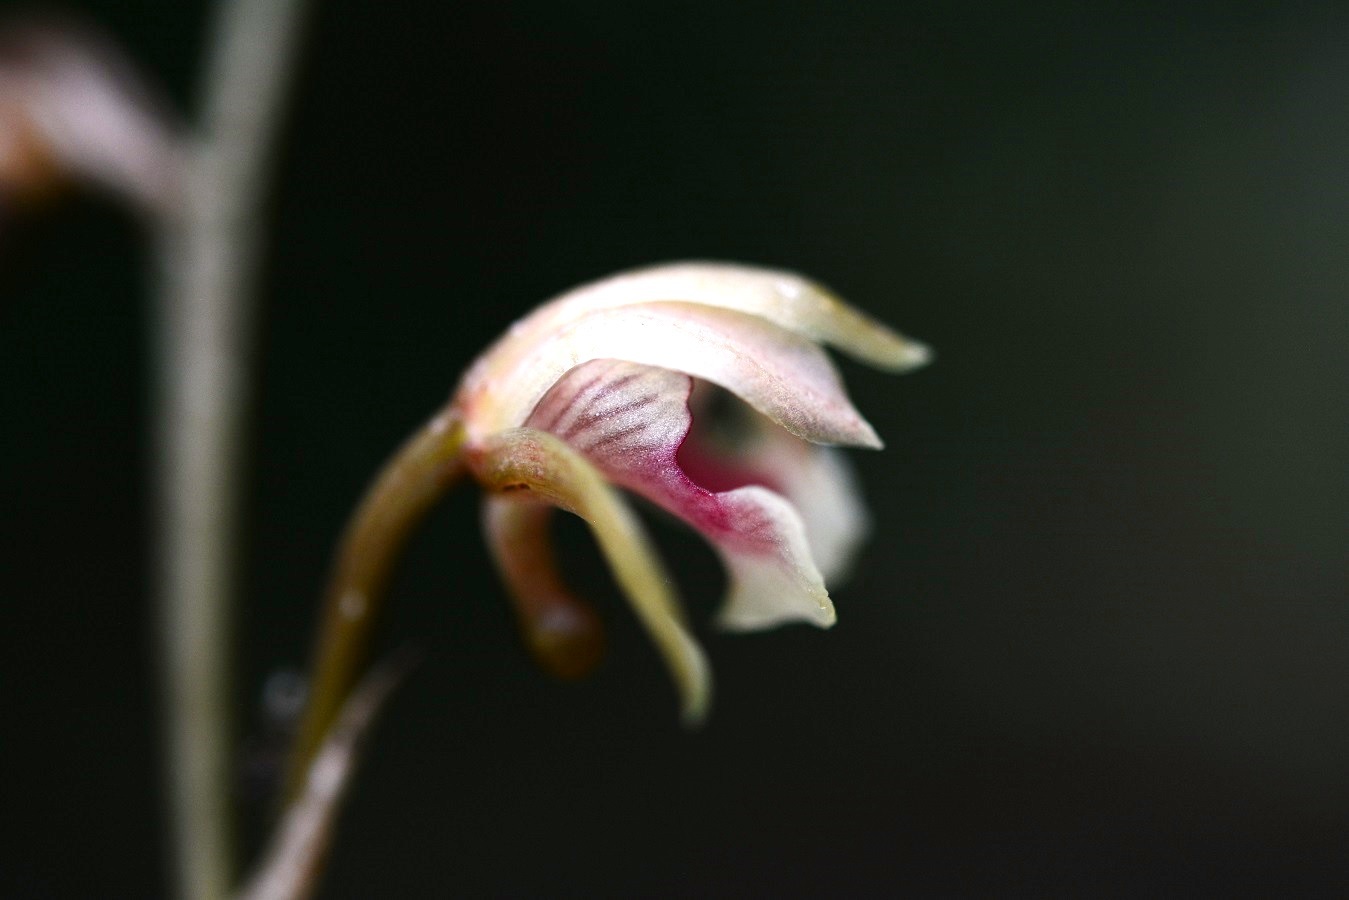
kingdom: Plantae
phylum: Tracheophyta
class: Liliopsida
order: Asparagales
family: Orchidaceae
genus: Eulophia
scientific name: Eulophia maculata
